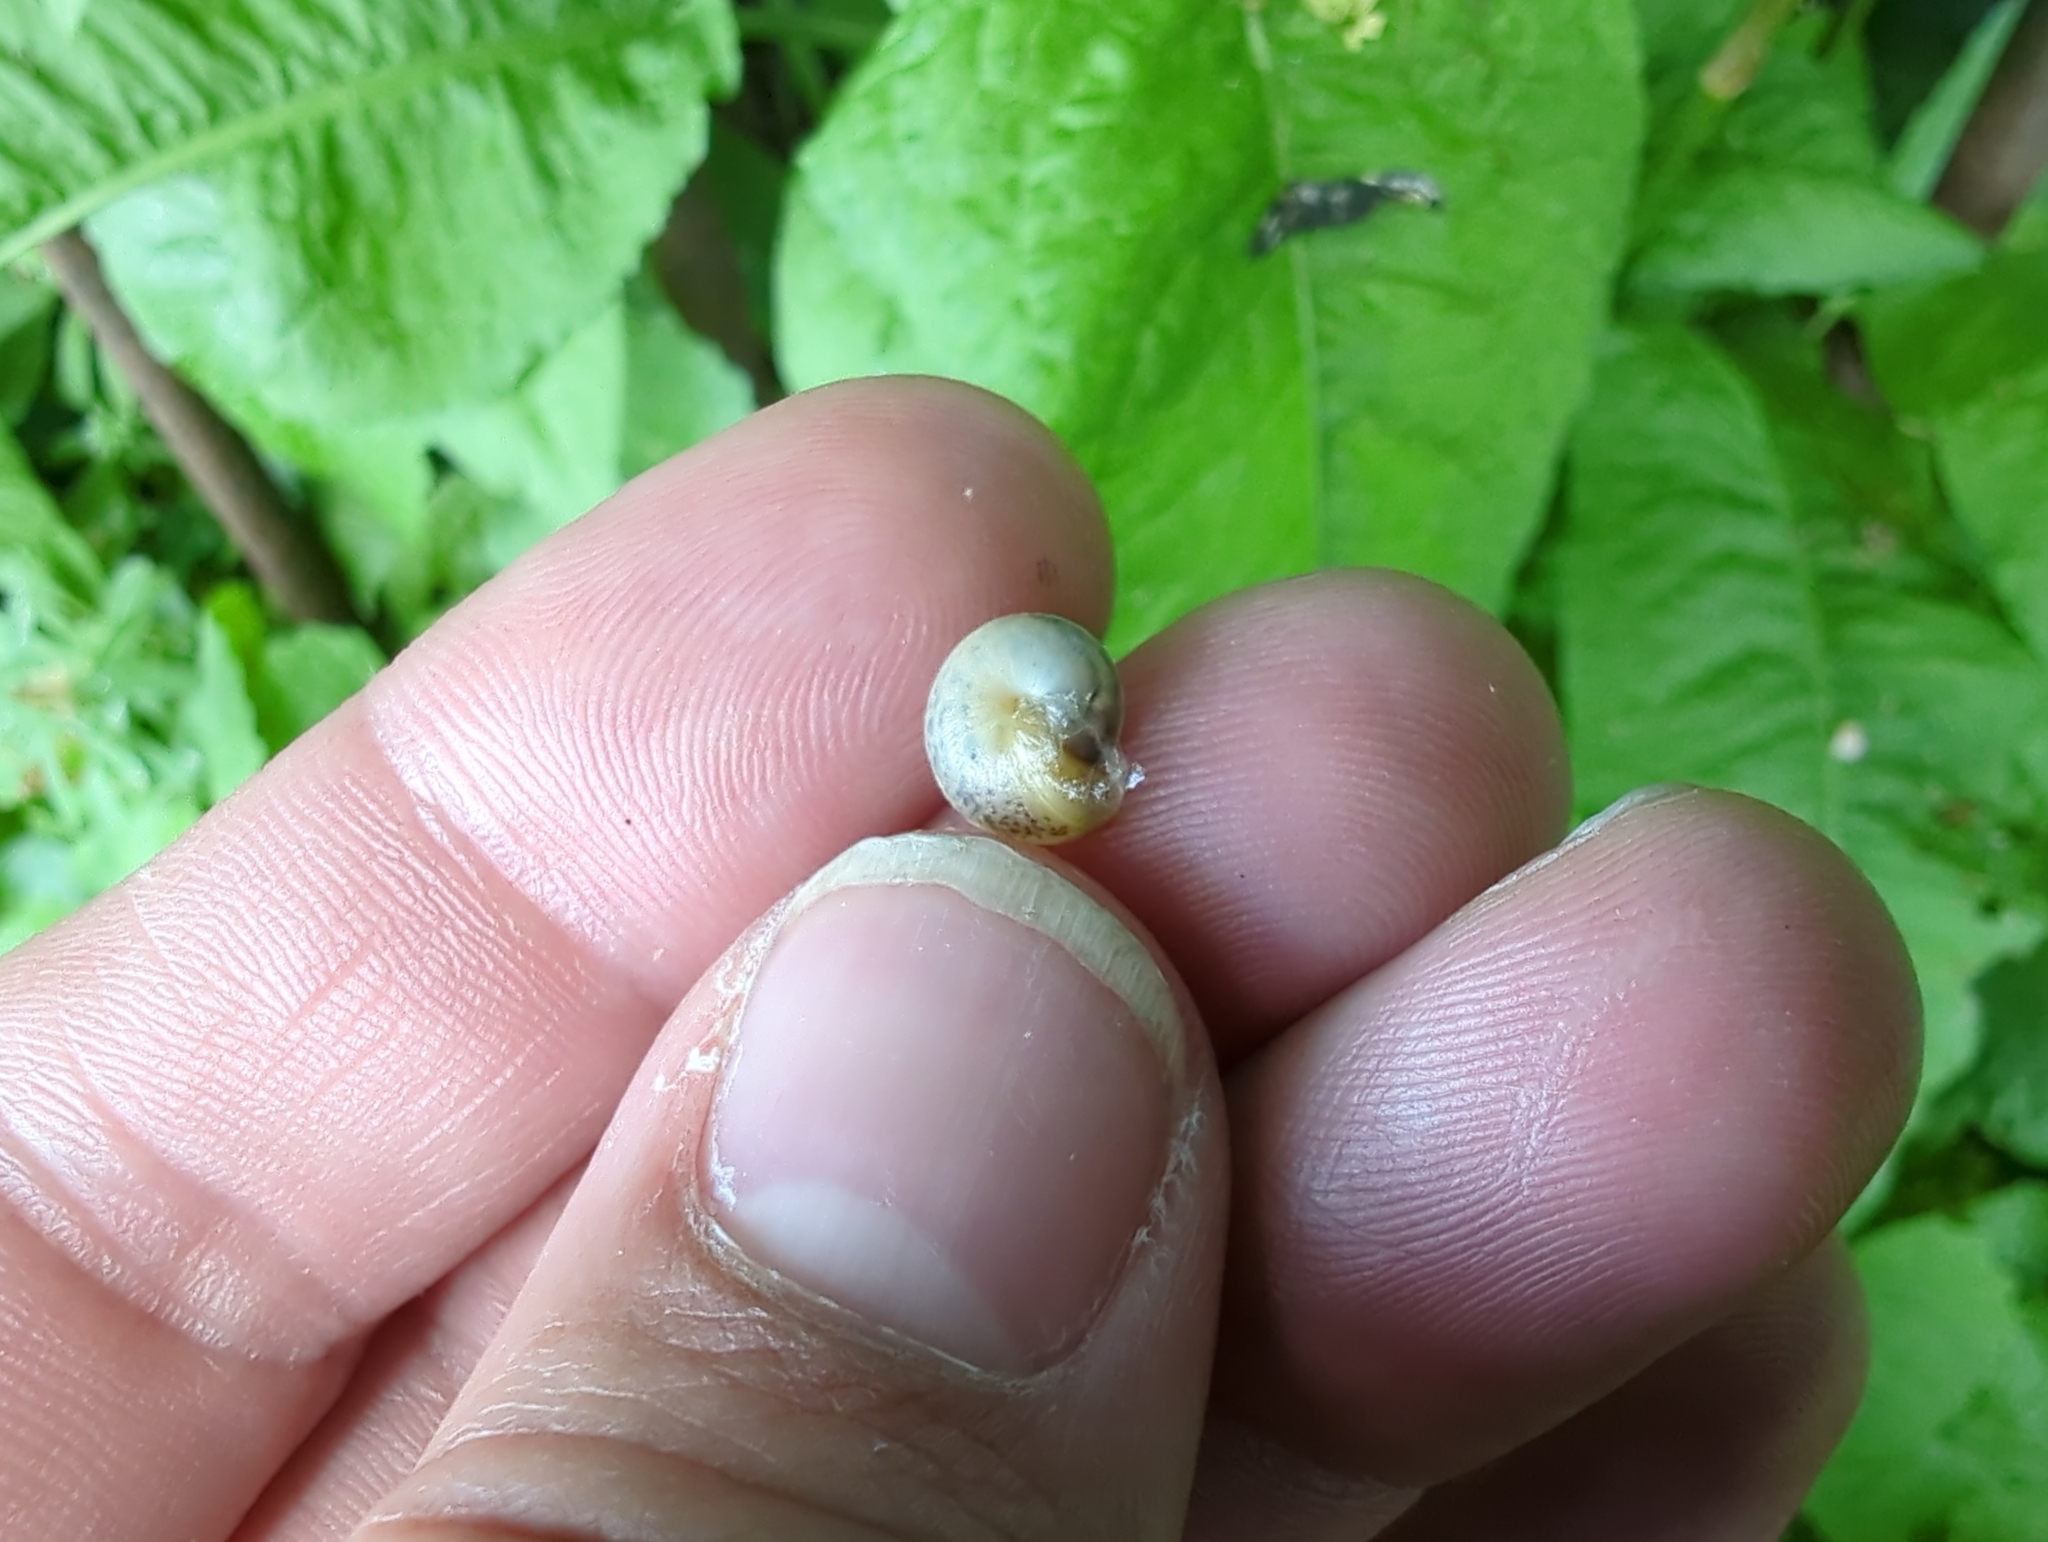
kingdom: Animalia
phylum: Mollusca
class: Gastropoda
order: Stylommatophora
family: Hygromiidae
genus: Hygromia
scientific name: Hygromia cinctella
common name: Girdled snail
